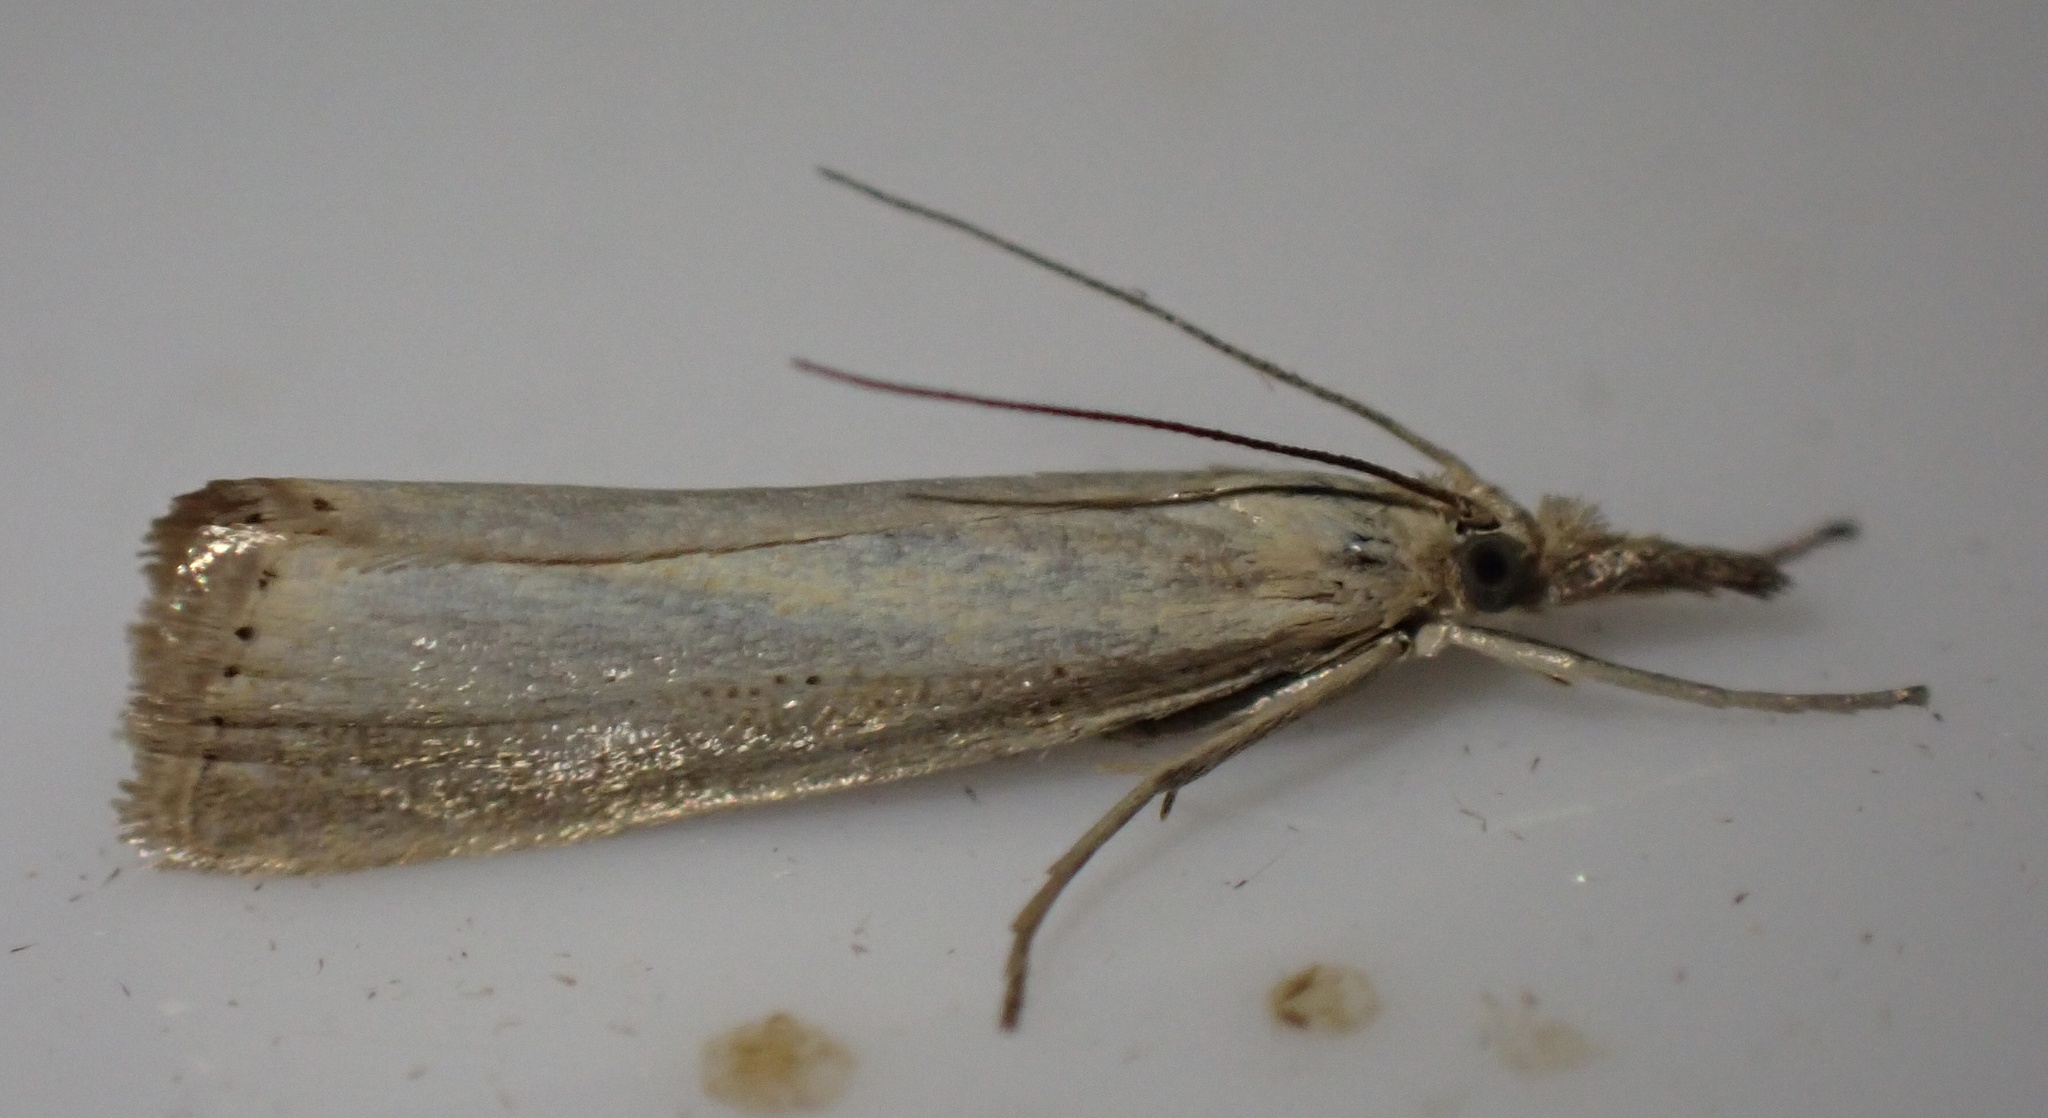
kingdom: Animalia
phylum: Arthropoda
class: Insecta
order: Lepidoptera
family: Crambidae
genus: Agriphila
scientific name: Agriphila straminella
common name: Straw grass-veneer
